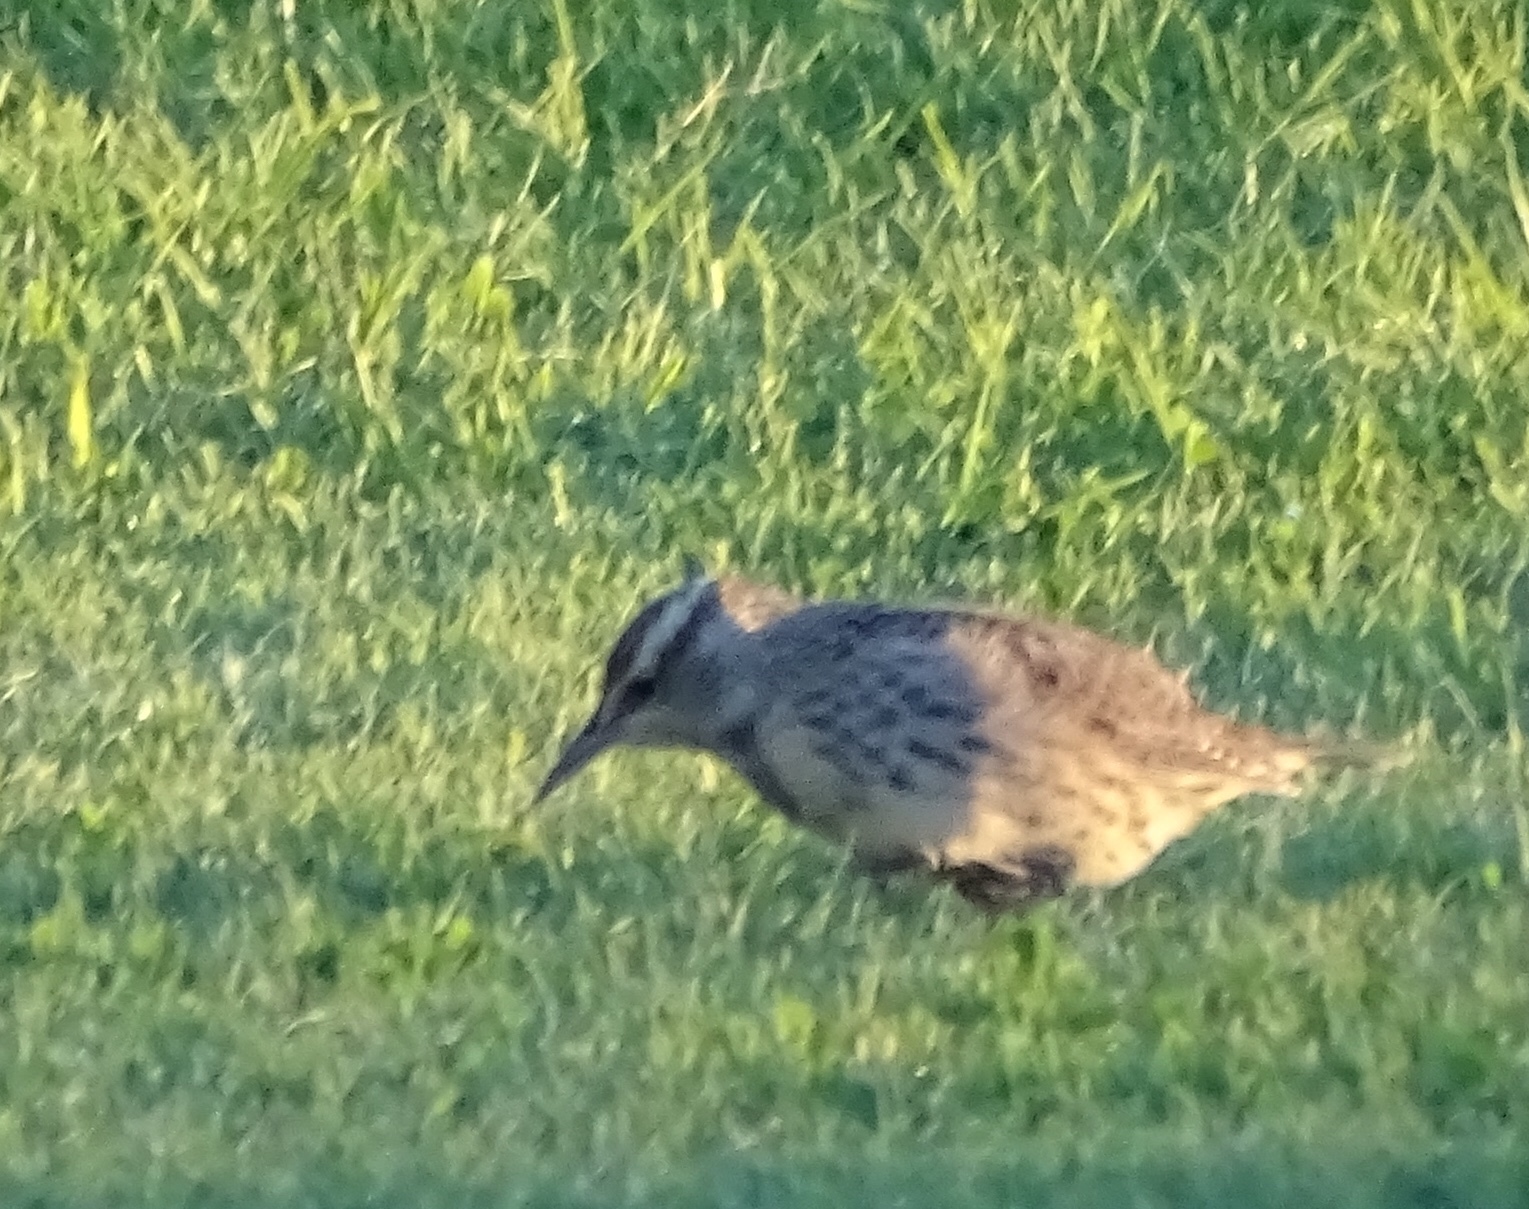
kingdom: Animalia
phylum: Chordata
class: Aves
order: Passeriformes
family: Icteridae
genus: Sturnella
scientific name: Sturnella neglecta
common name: Western meadowlark
